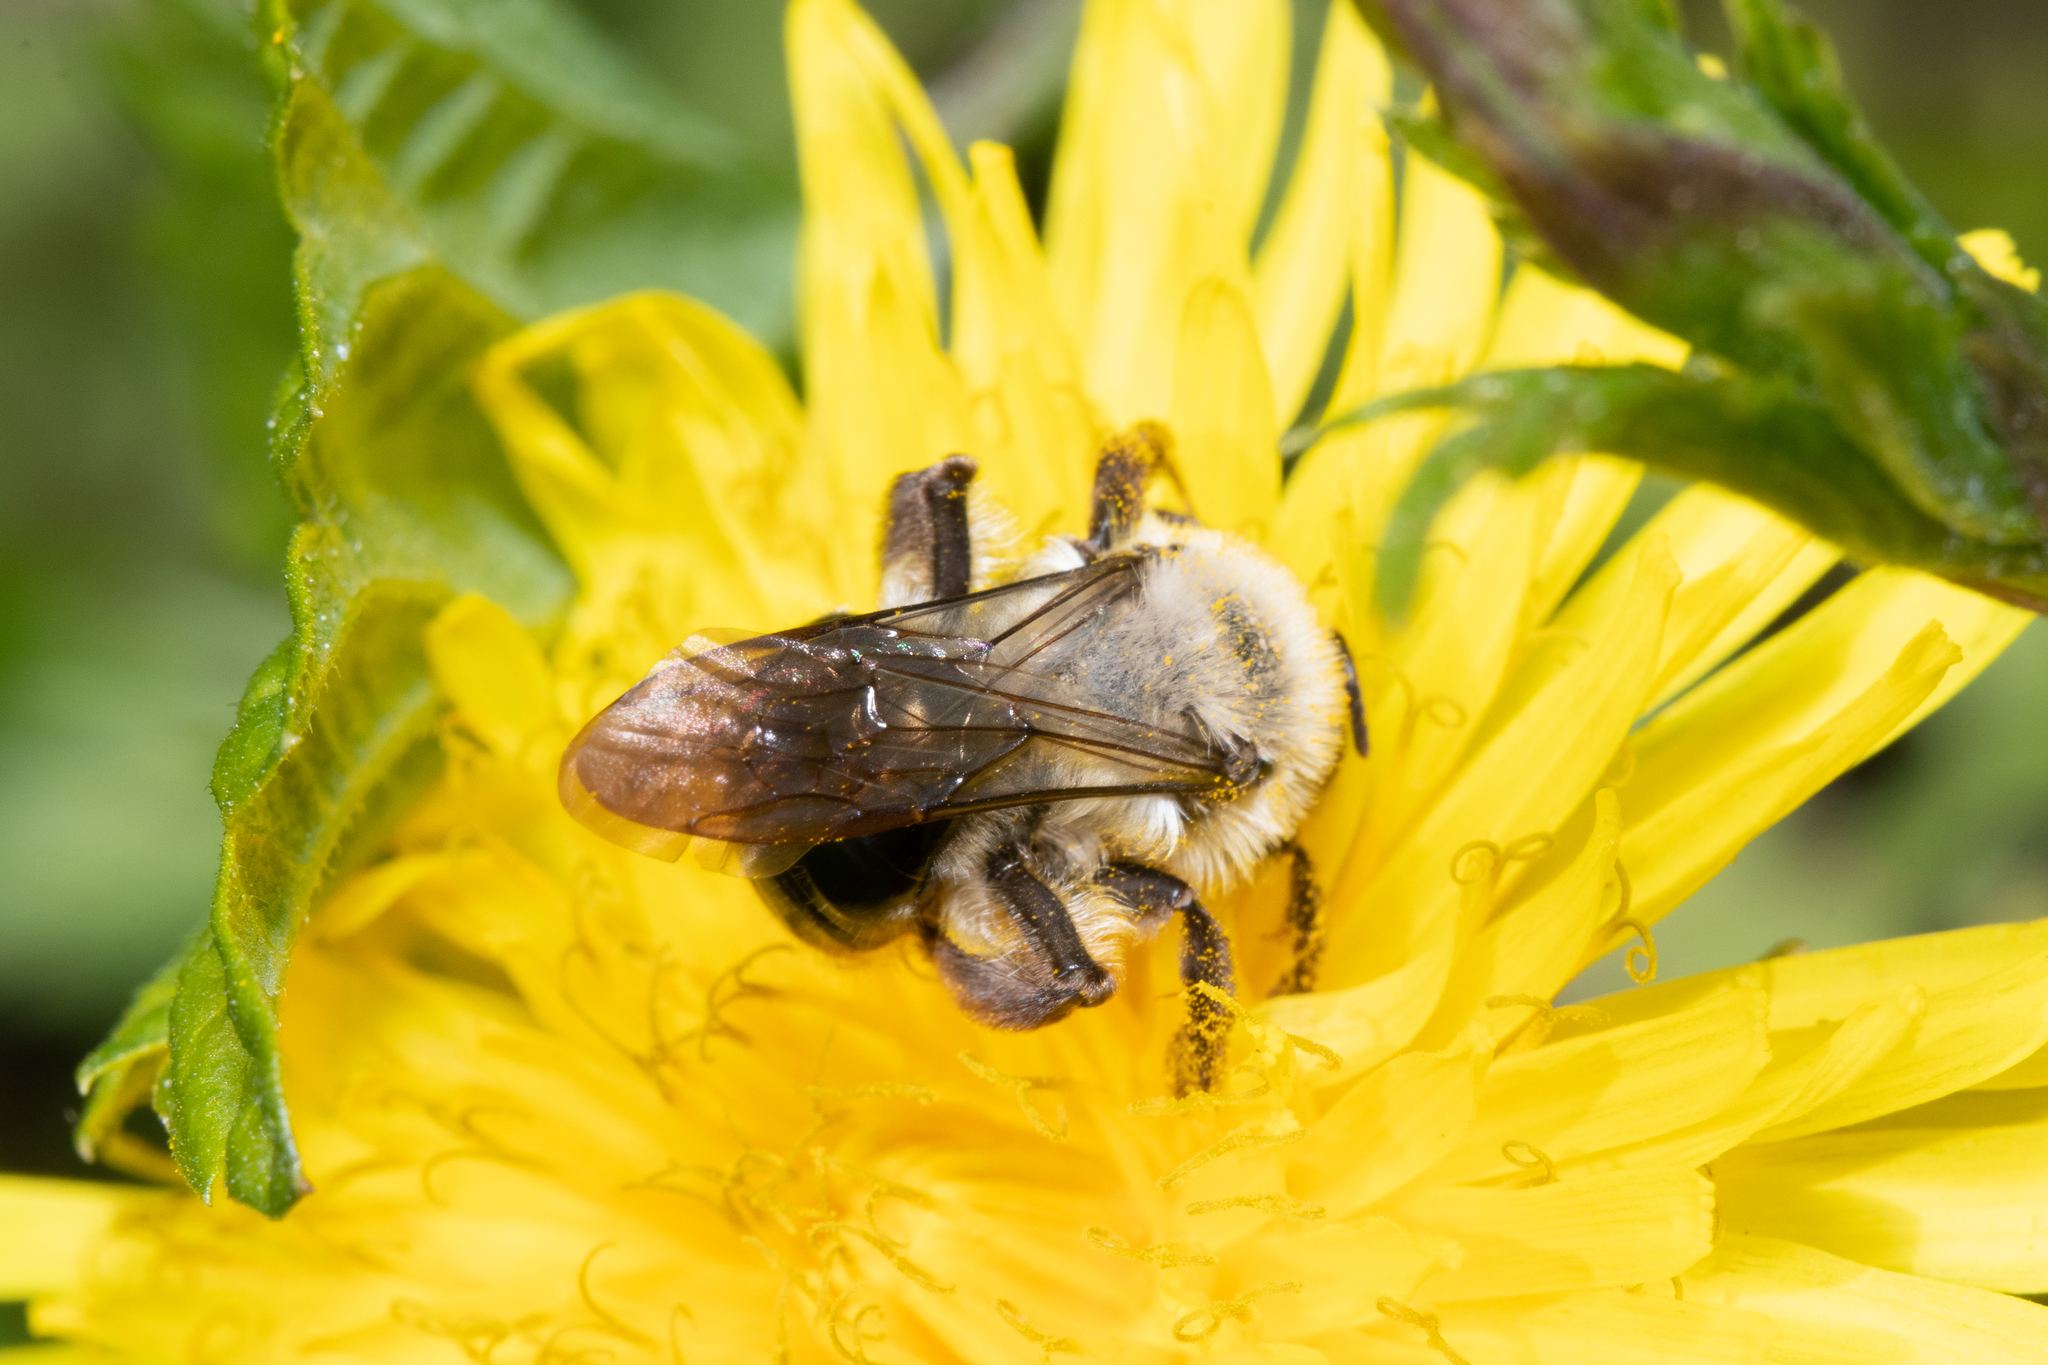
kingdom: Animalia
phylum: Arthropoda
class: Insecta
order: Hymenoptera
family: Andrenidae
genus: Andrena
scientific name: Andrena vaga
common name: Grey-backed mining bee
